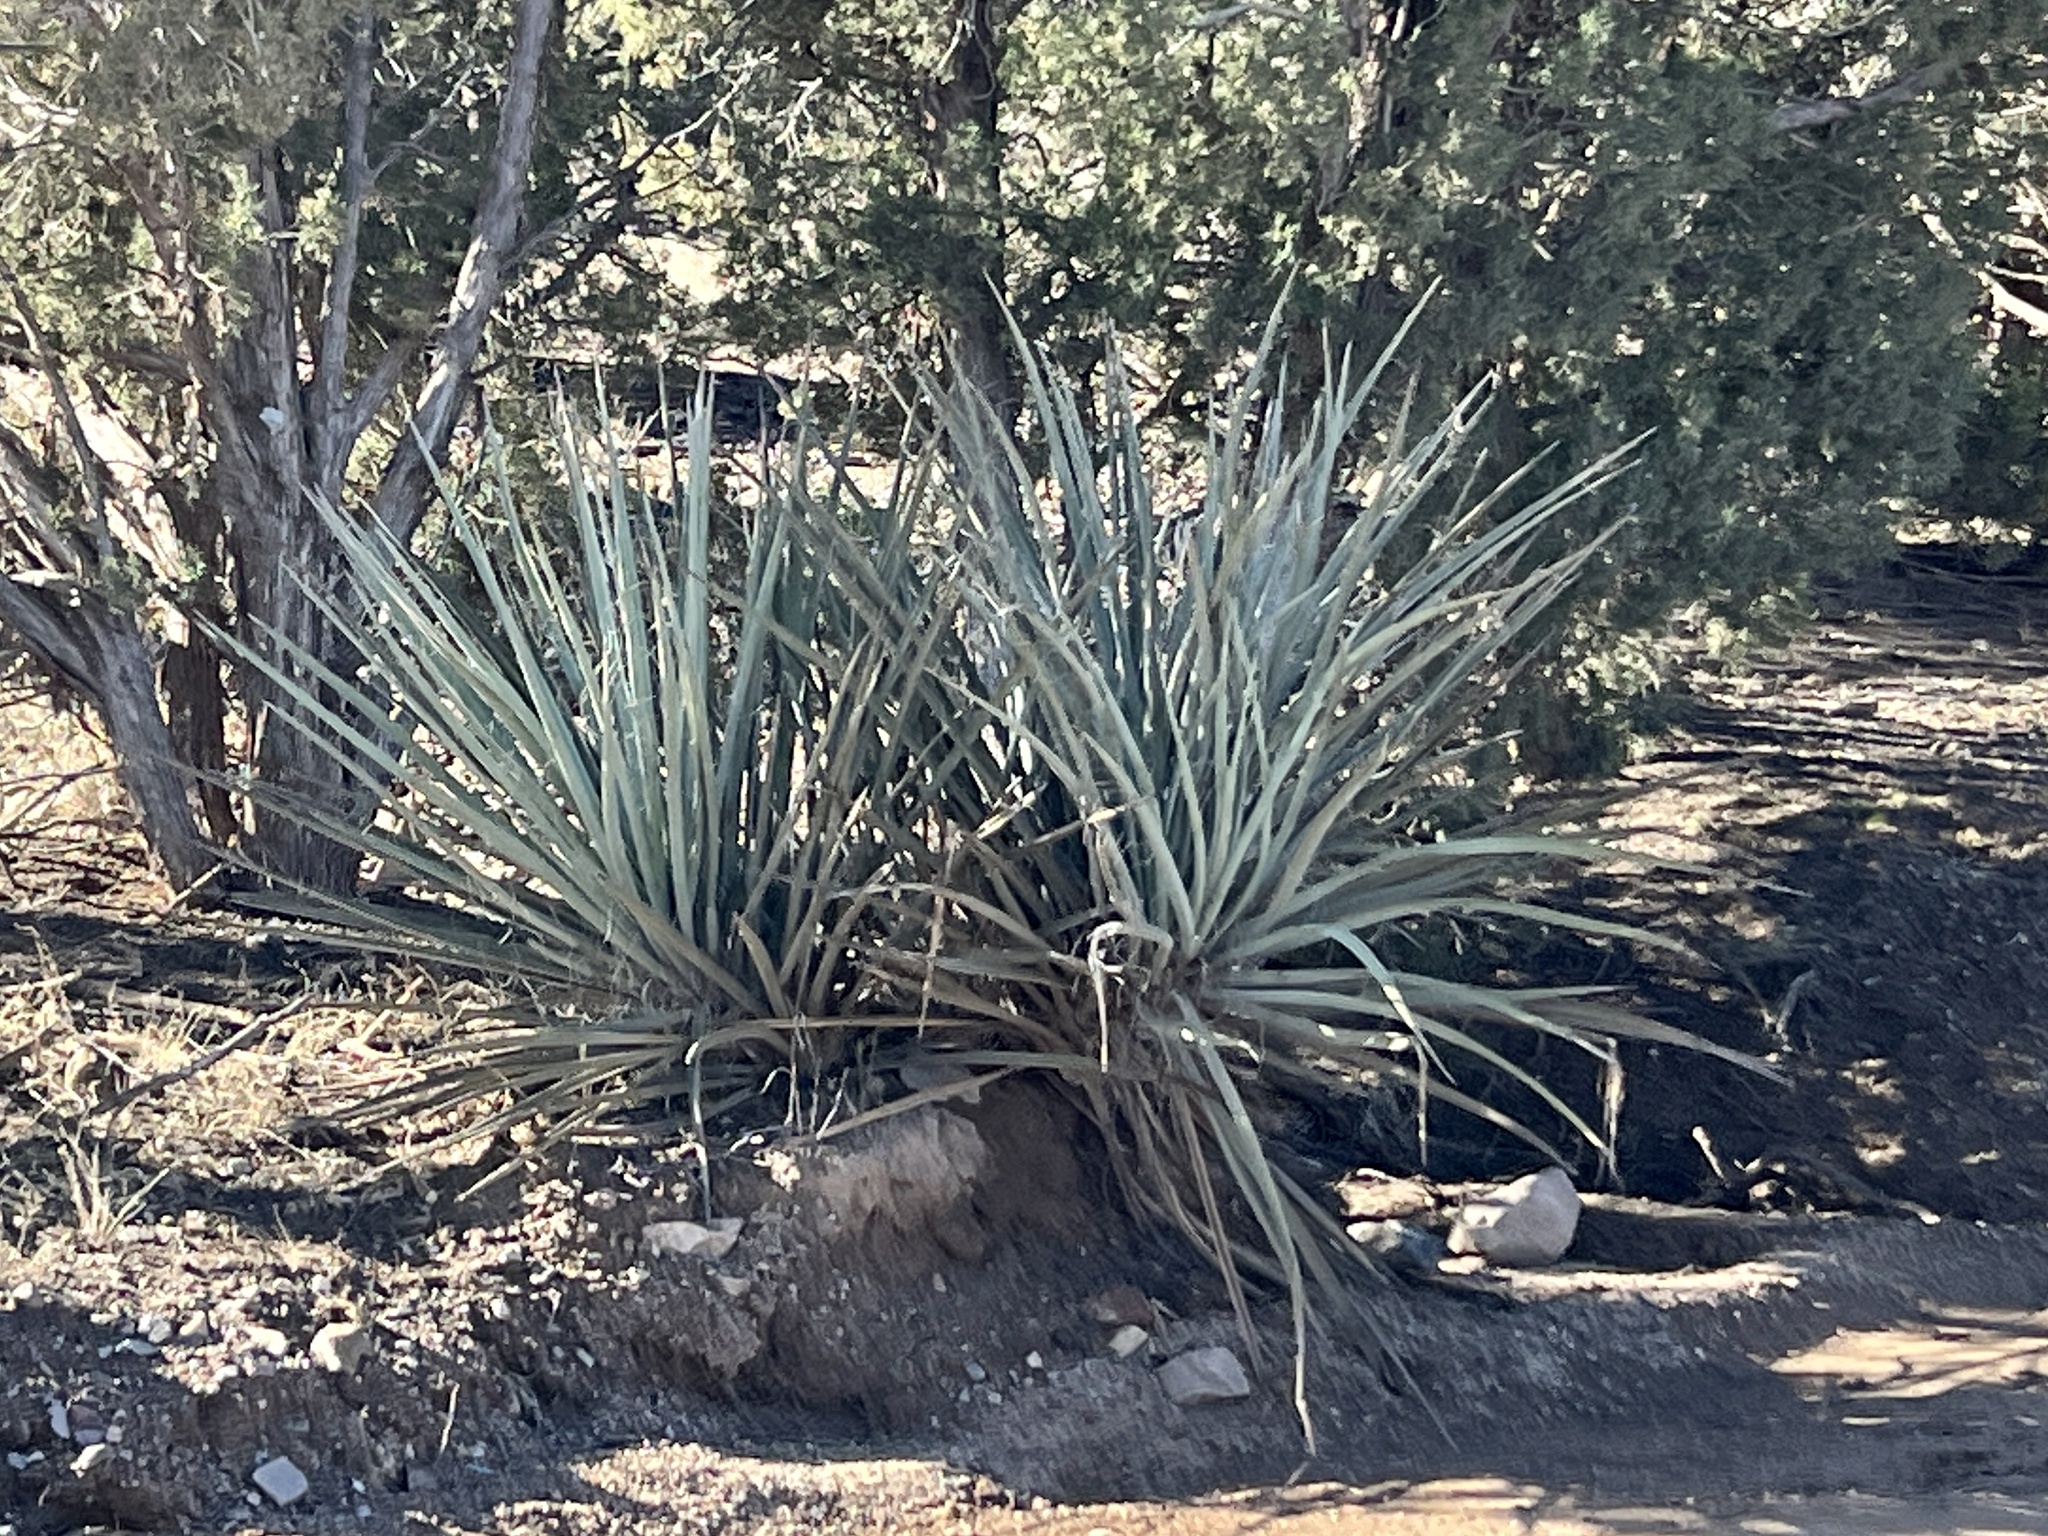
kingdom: Plantae
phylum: Tracheophyta
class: Liliopsida
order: Asparagales
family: Asparagaceae
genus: Yucca
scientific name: Yucca baccata
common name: Banana yucca
